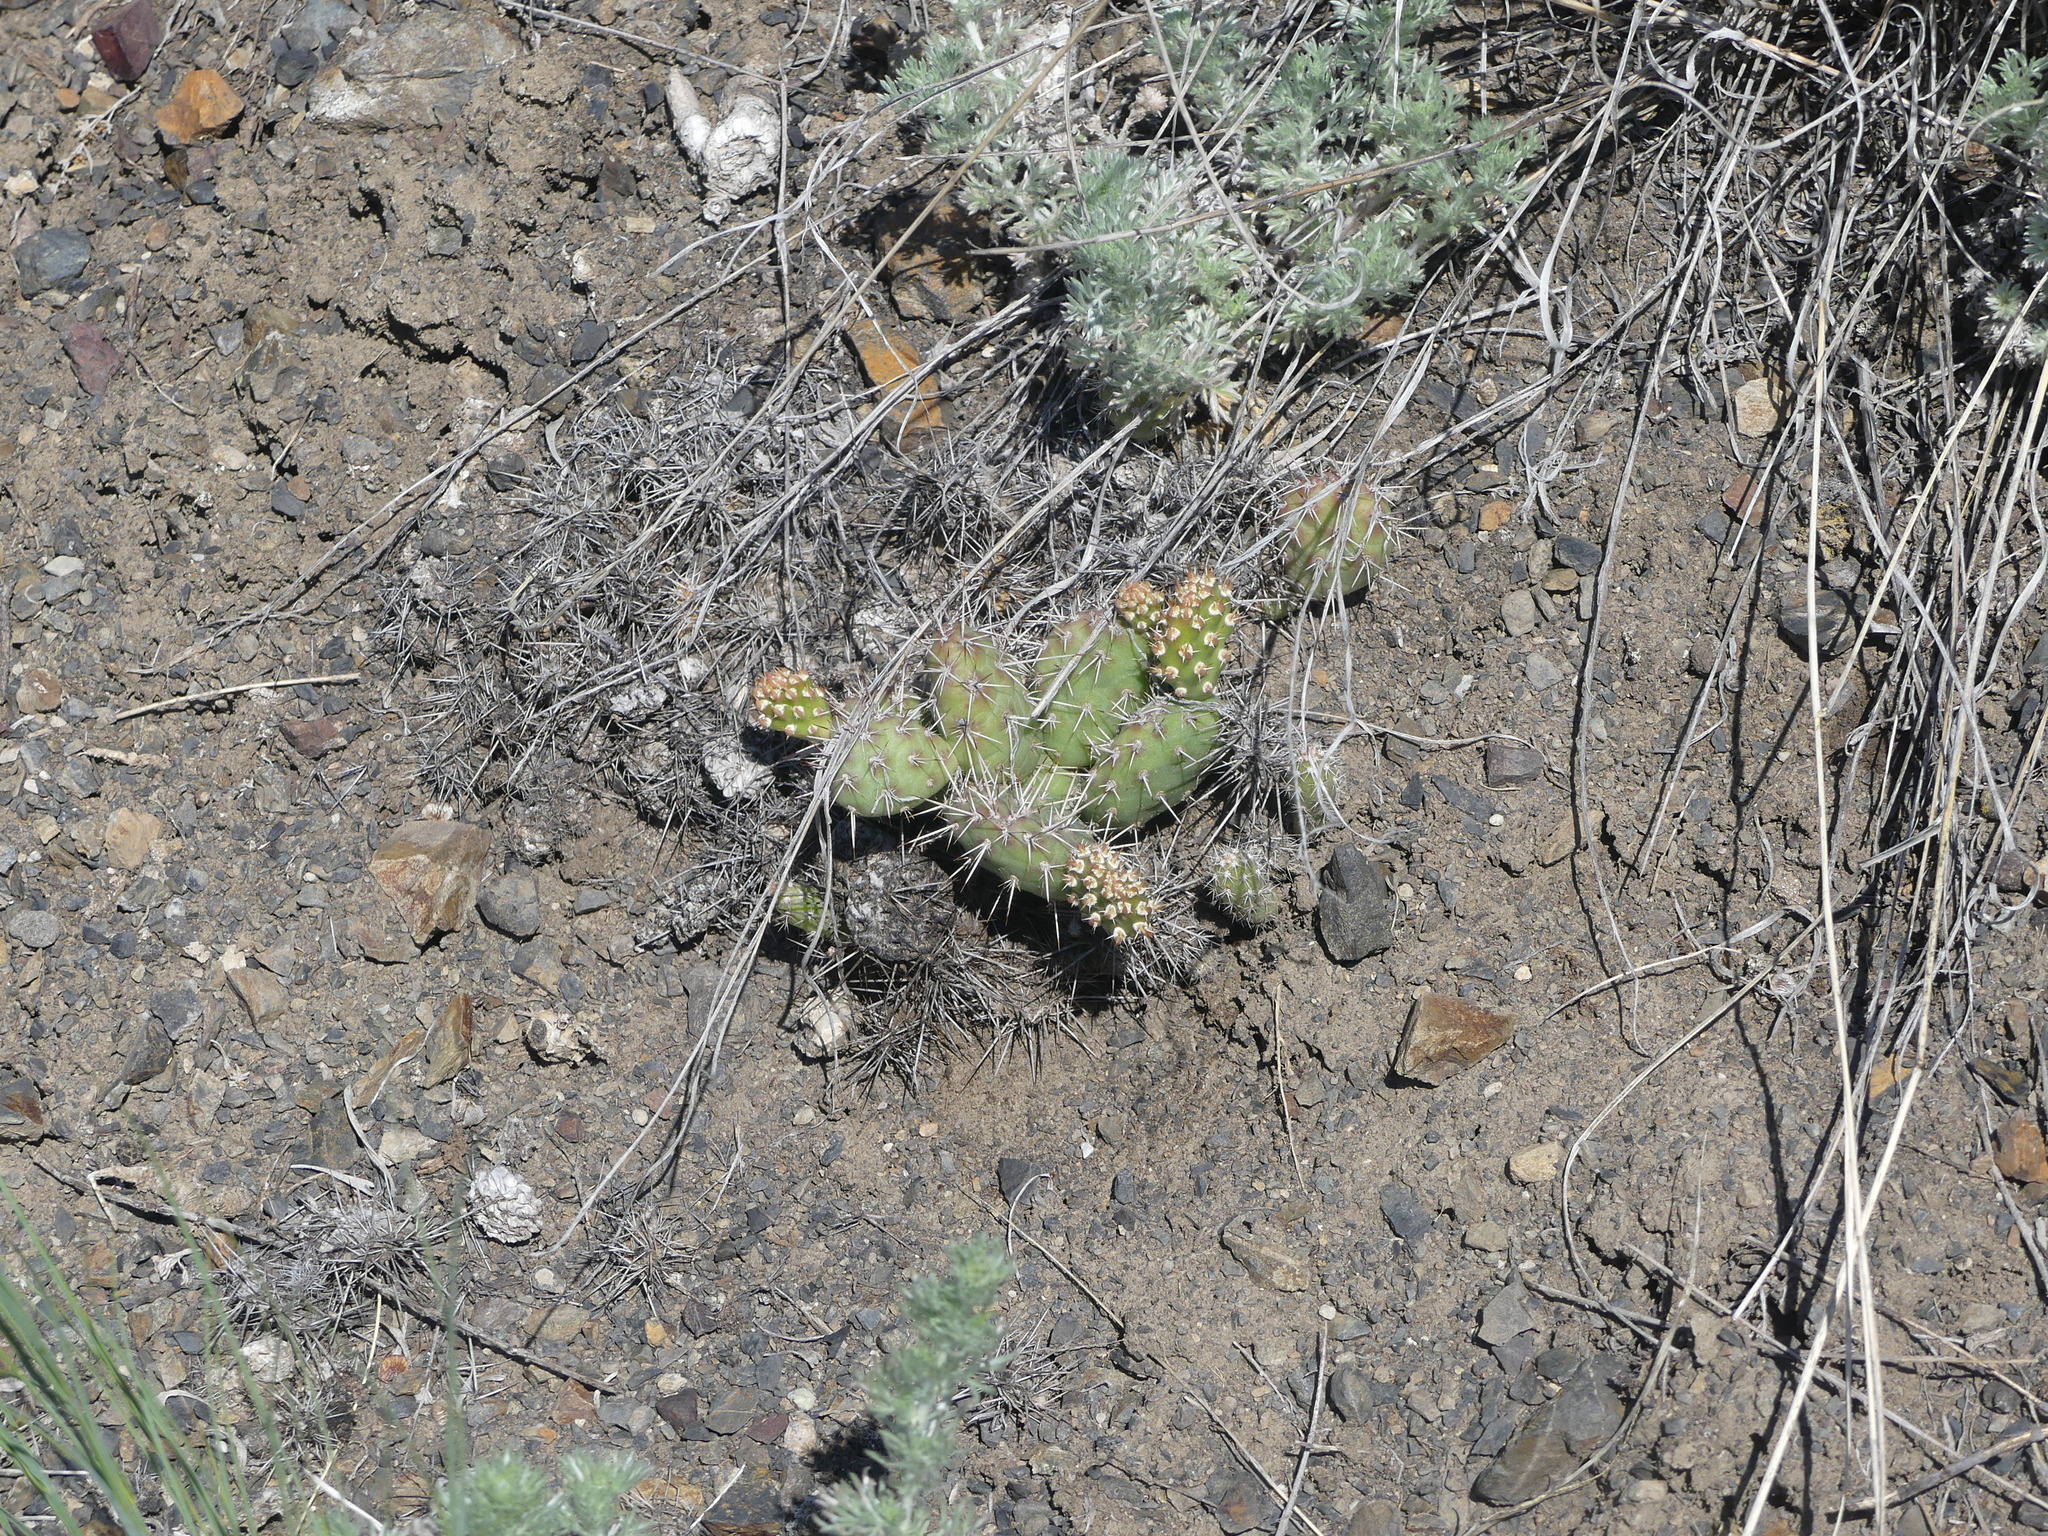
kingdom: Plantae
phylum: Tracheophyta
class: Magnoliopsida
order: Caryophyllales
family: Cactaceae
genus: Opuntia
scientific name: Opuntia fragilis
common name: Brittle cactus
